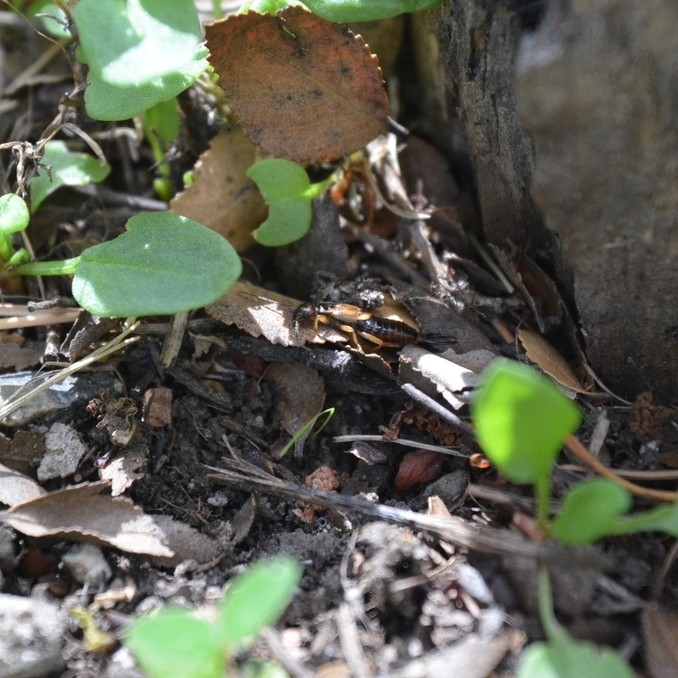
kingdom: Animalia
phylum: Arthropoda
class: Insecta
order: Dermaptera
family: Forficulidae
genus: Forficula
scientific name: Forficula dentata
